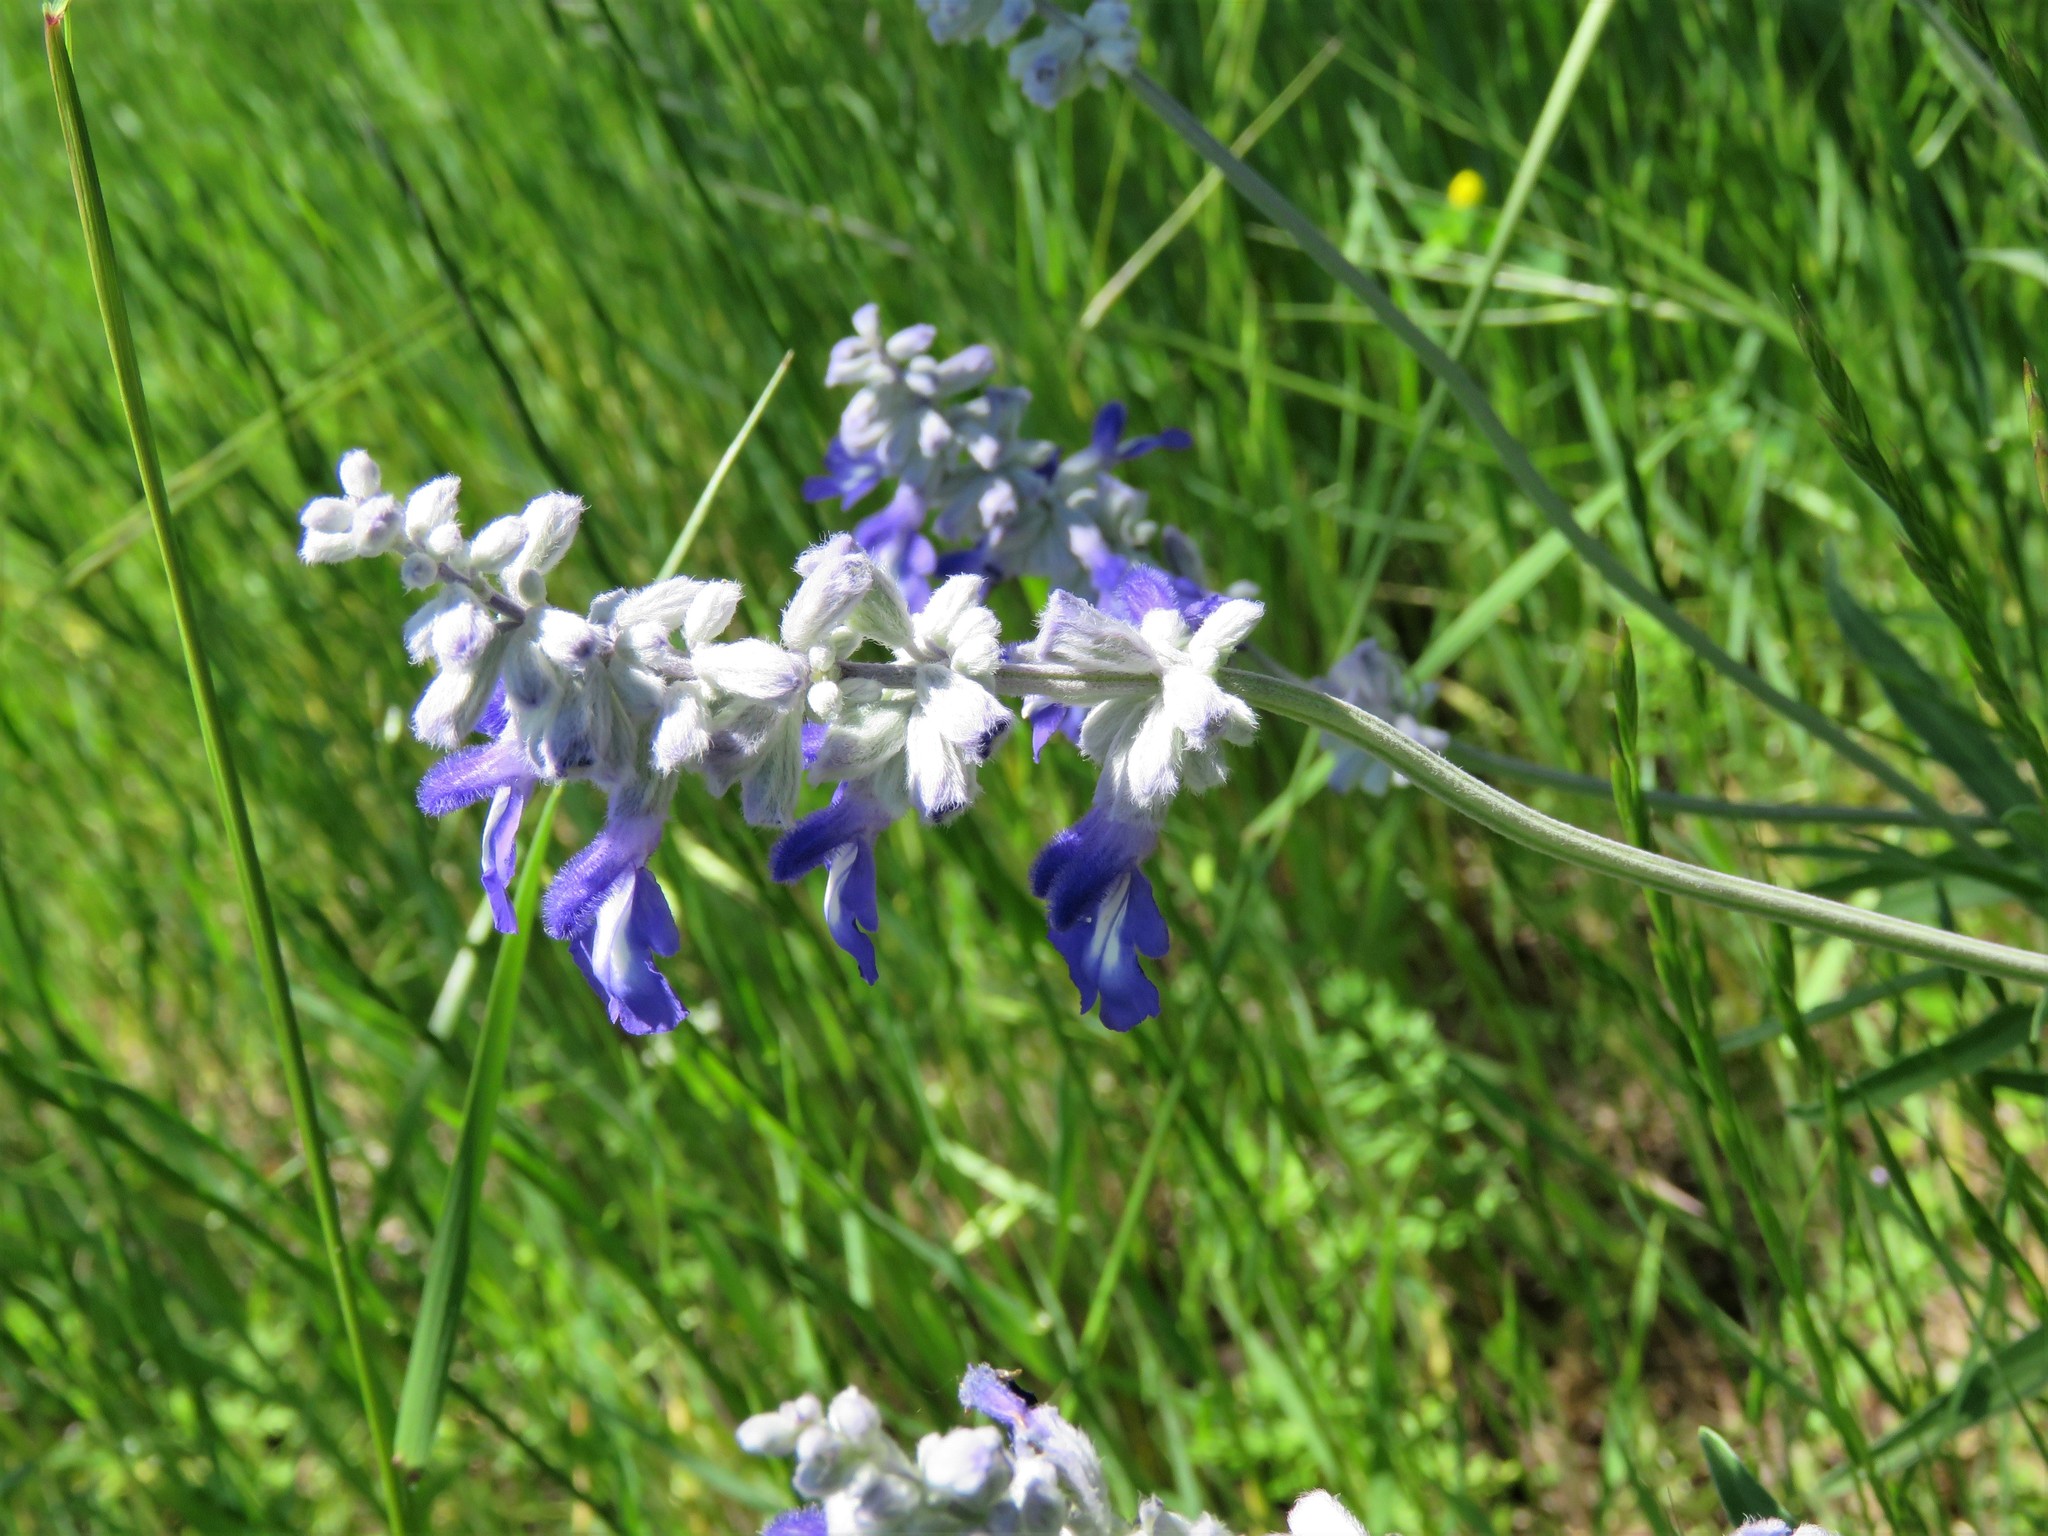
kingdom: Plantae
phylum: Tracheophyta
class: Magnoliopsida
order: Lamiales
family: Lamiaceae
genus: Salvia
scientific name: Salvia farinacea
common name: Mealy sage
